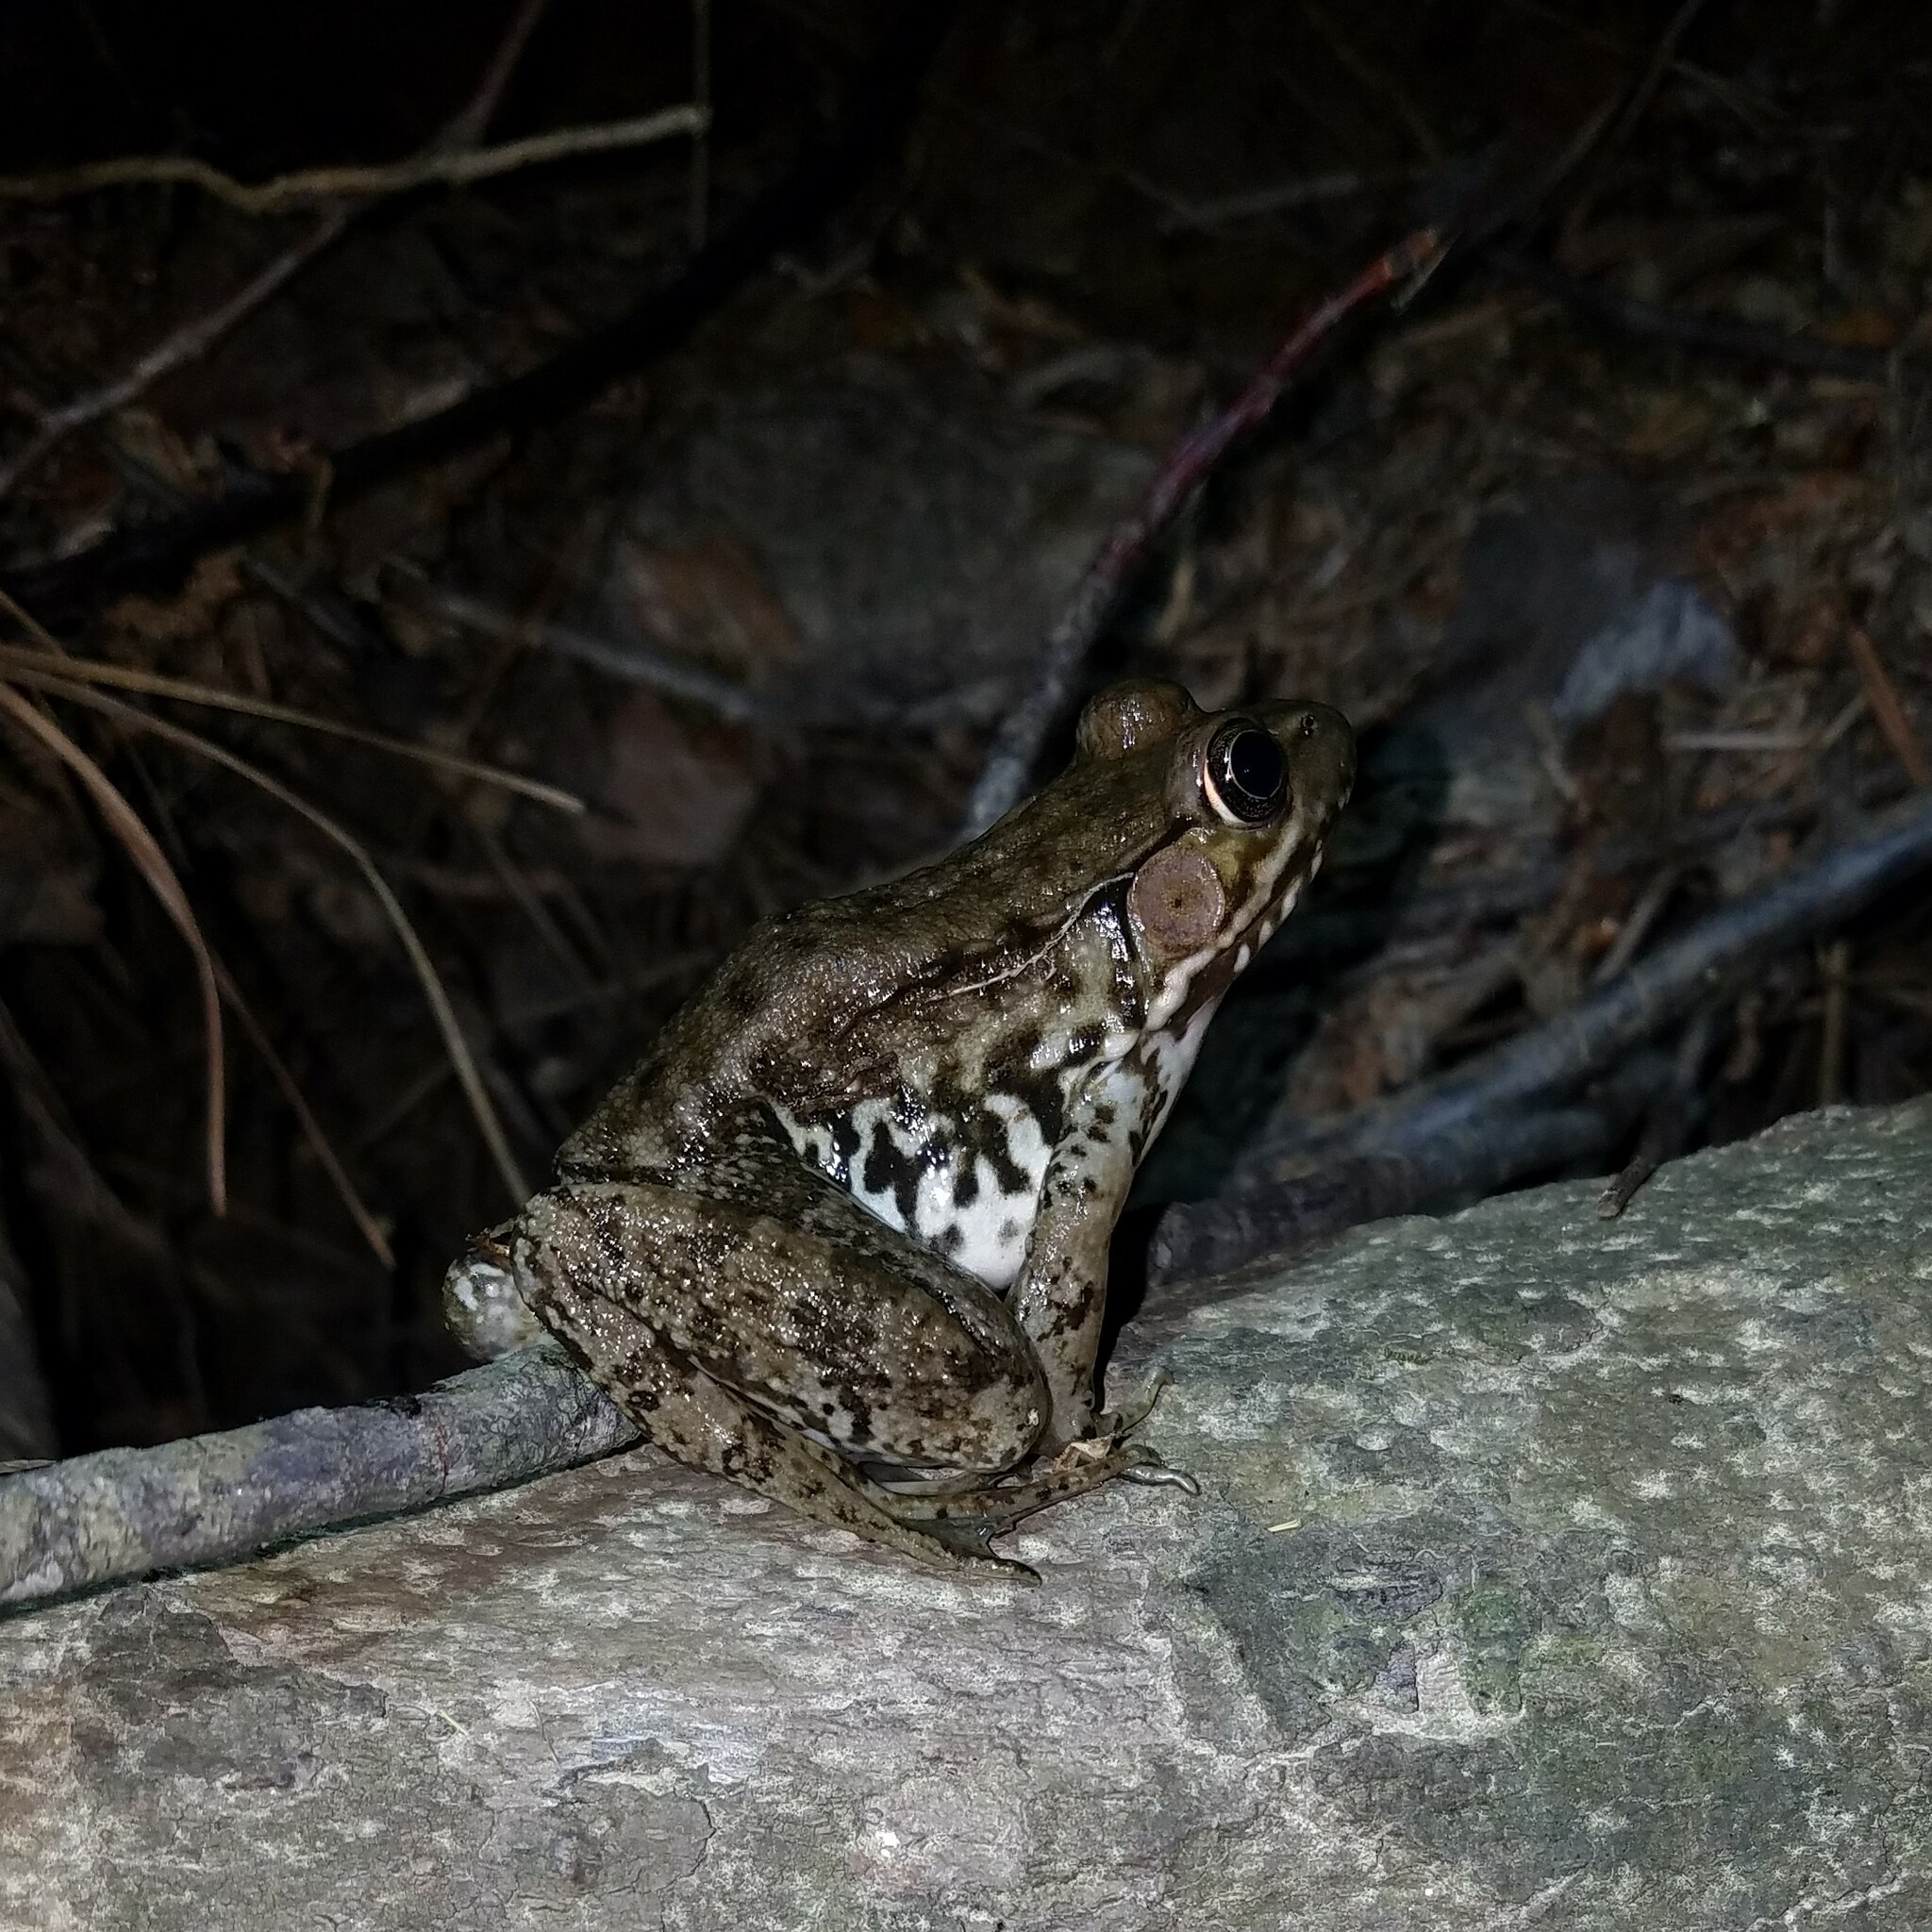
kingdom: Animalia
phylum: Chordata
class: Amphibia
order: Anura
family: Ranidae
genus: Lithobates
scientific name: Lithobates clamitans
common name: Green frog
